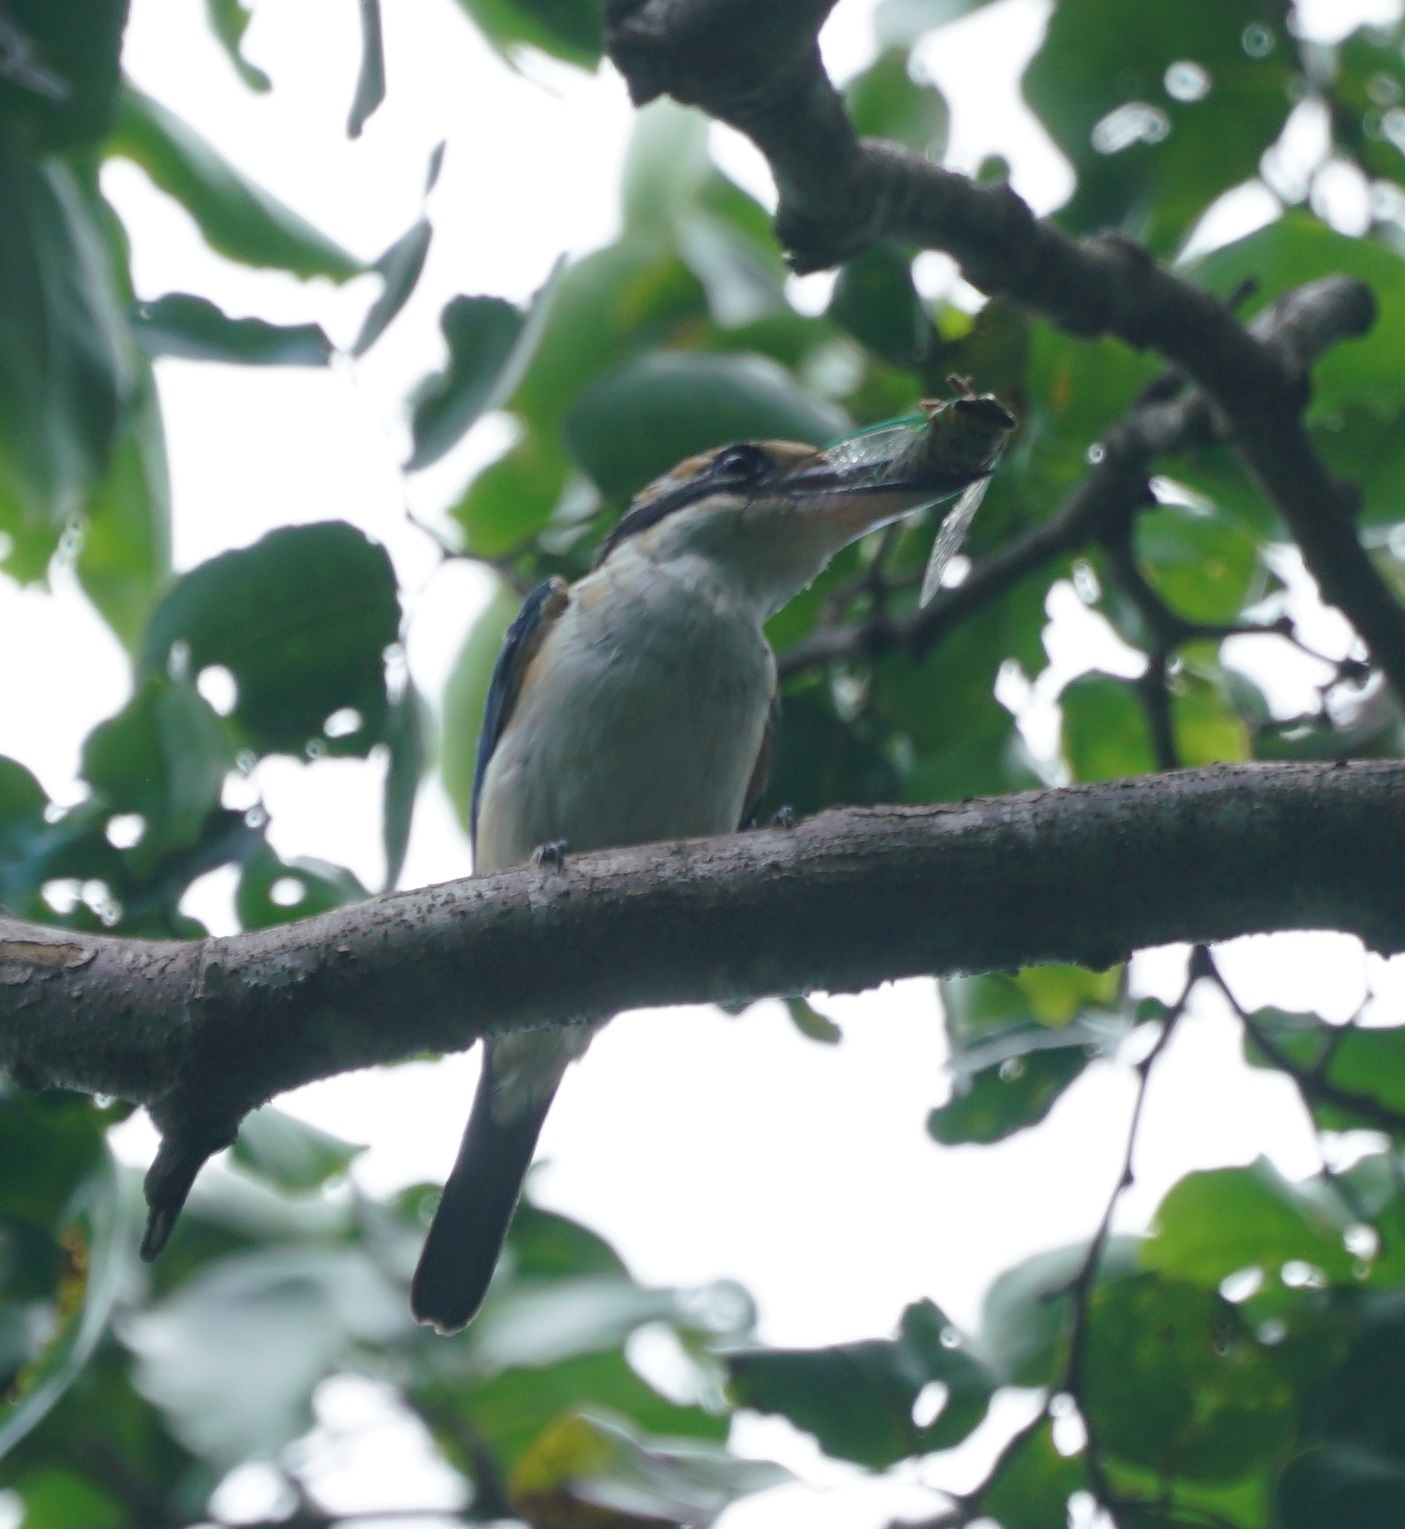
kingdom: Animalia
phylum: Chordata
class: Aves
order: Coraciiformes
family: Alcedinidae
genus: Todiramphus
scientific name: Todiramphus sacer
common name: Pacific kingfisher
